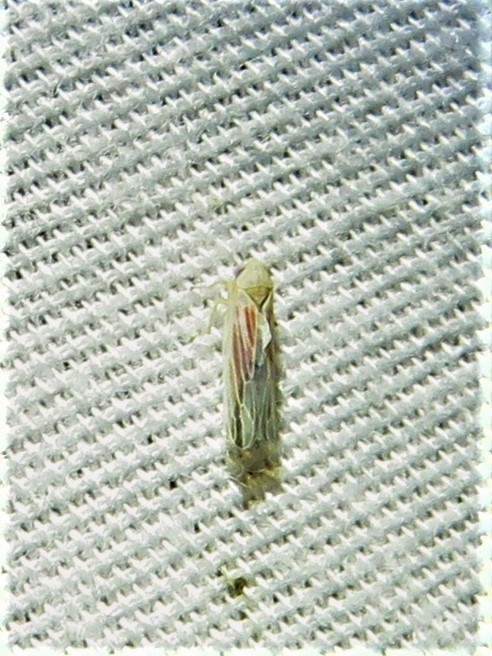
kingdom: Animalia
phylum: Arthropoda
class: Insecta
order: Hemiptera
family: Cicadellidae
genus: Balclutha
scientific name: Balclutha rubrostriata
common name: Red-streaked leafhopper
